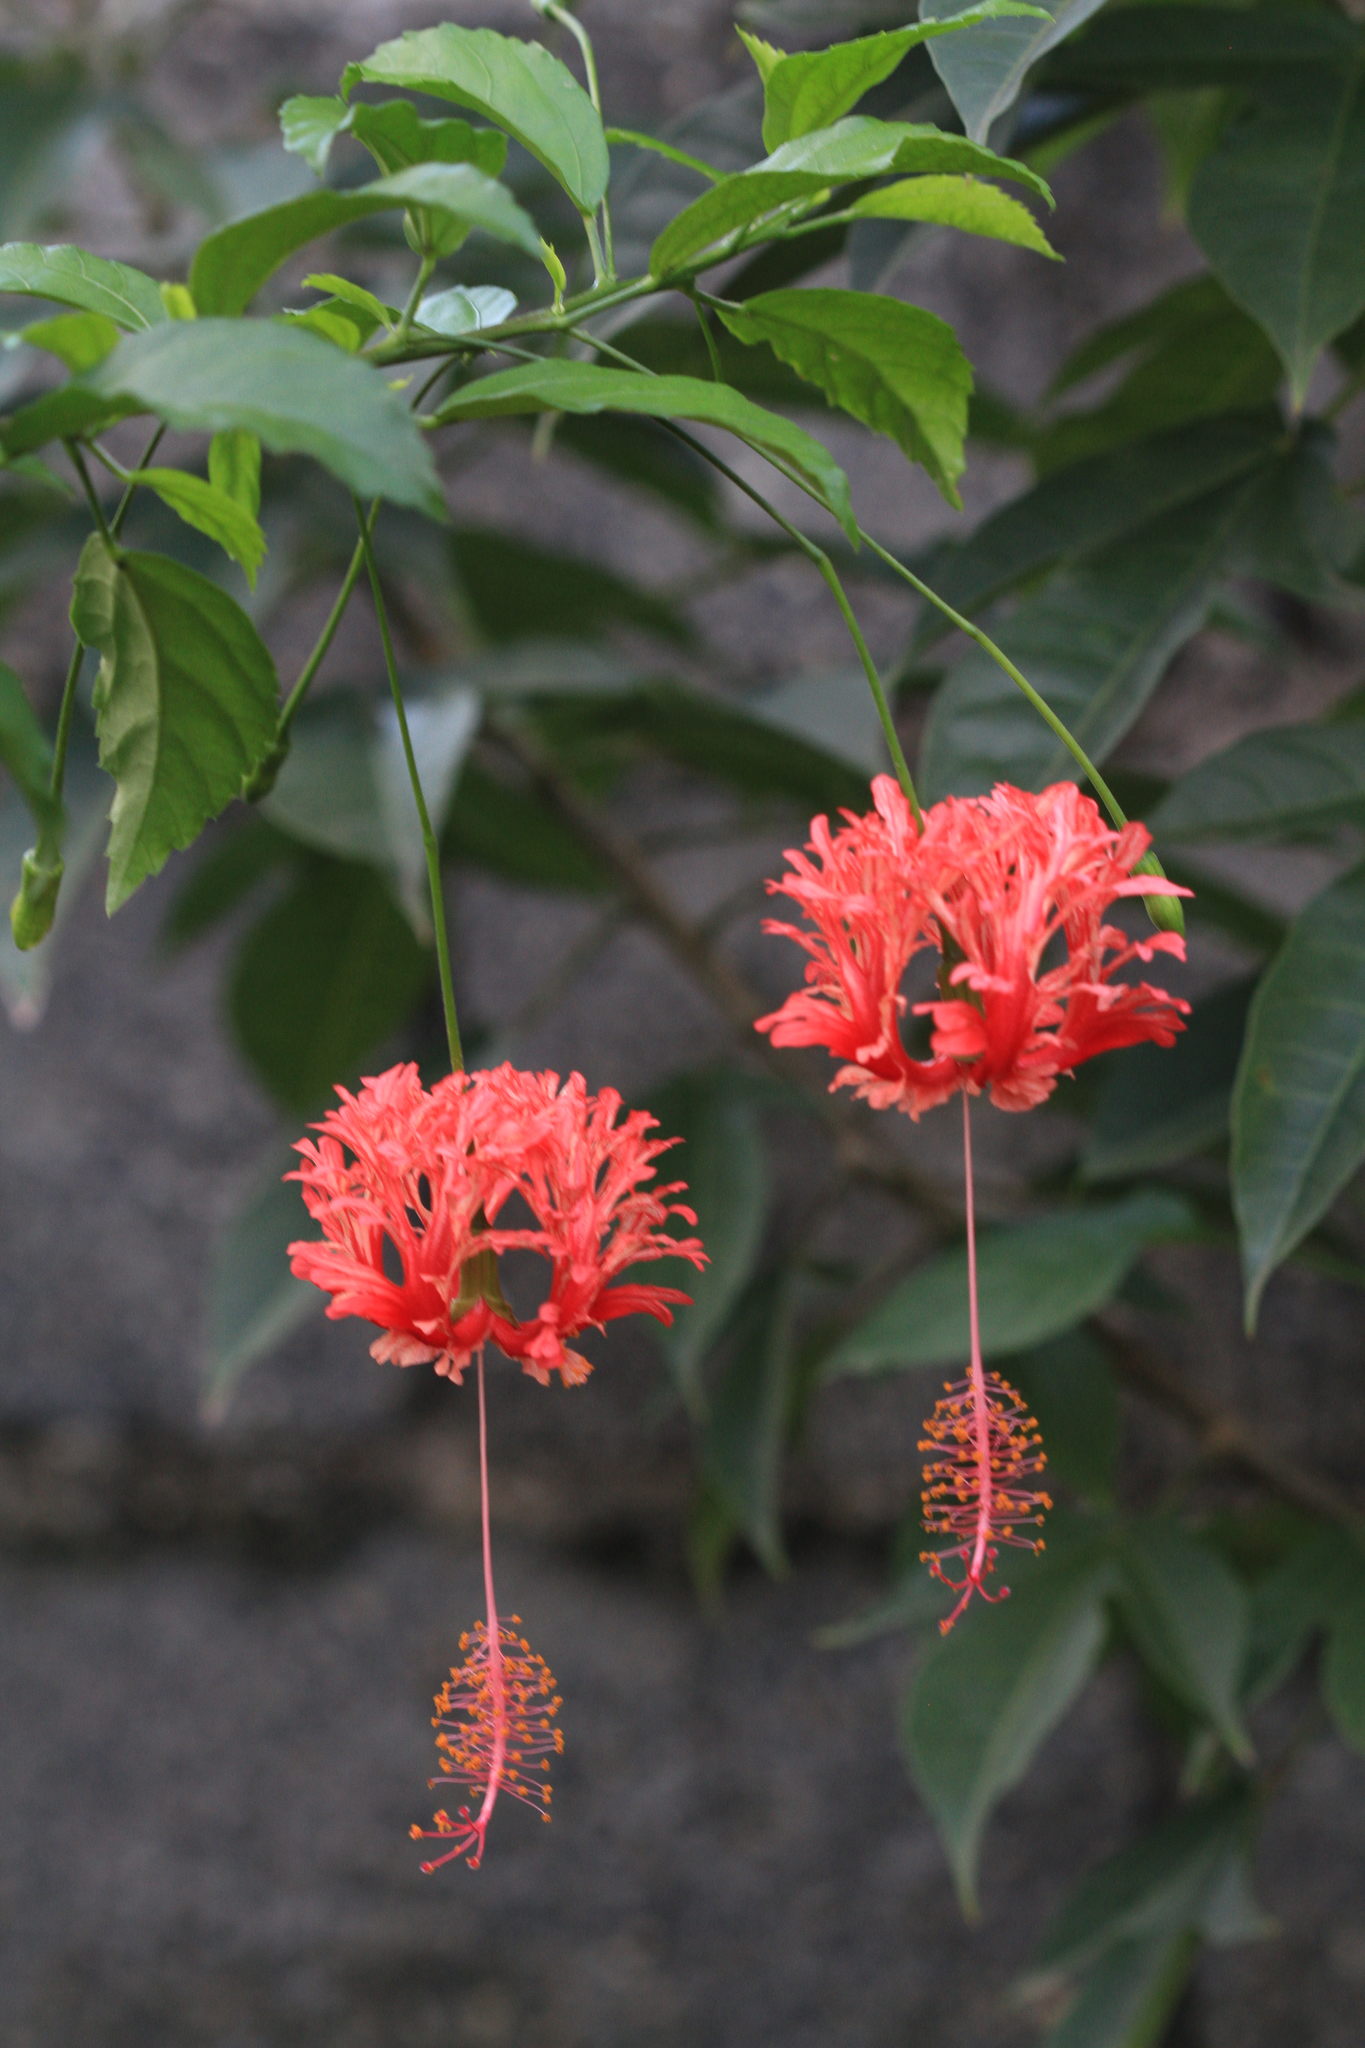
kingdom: Plantae
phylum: Tracheophyta
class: Magnoliopsida
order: Malvales
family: Malvaceae
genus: Hibiscus
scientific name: Hibiscus schizopetalus
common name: Fringed rosemallow
